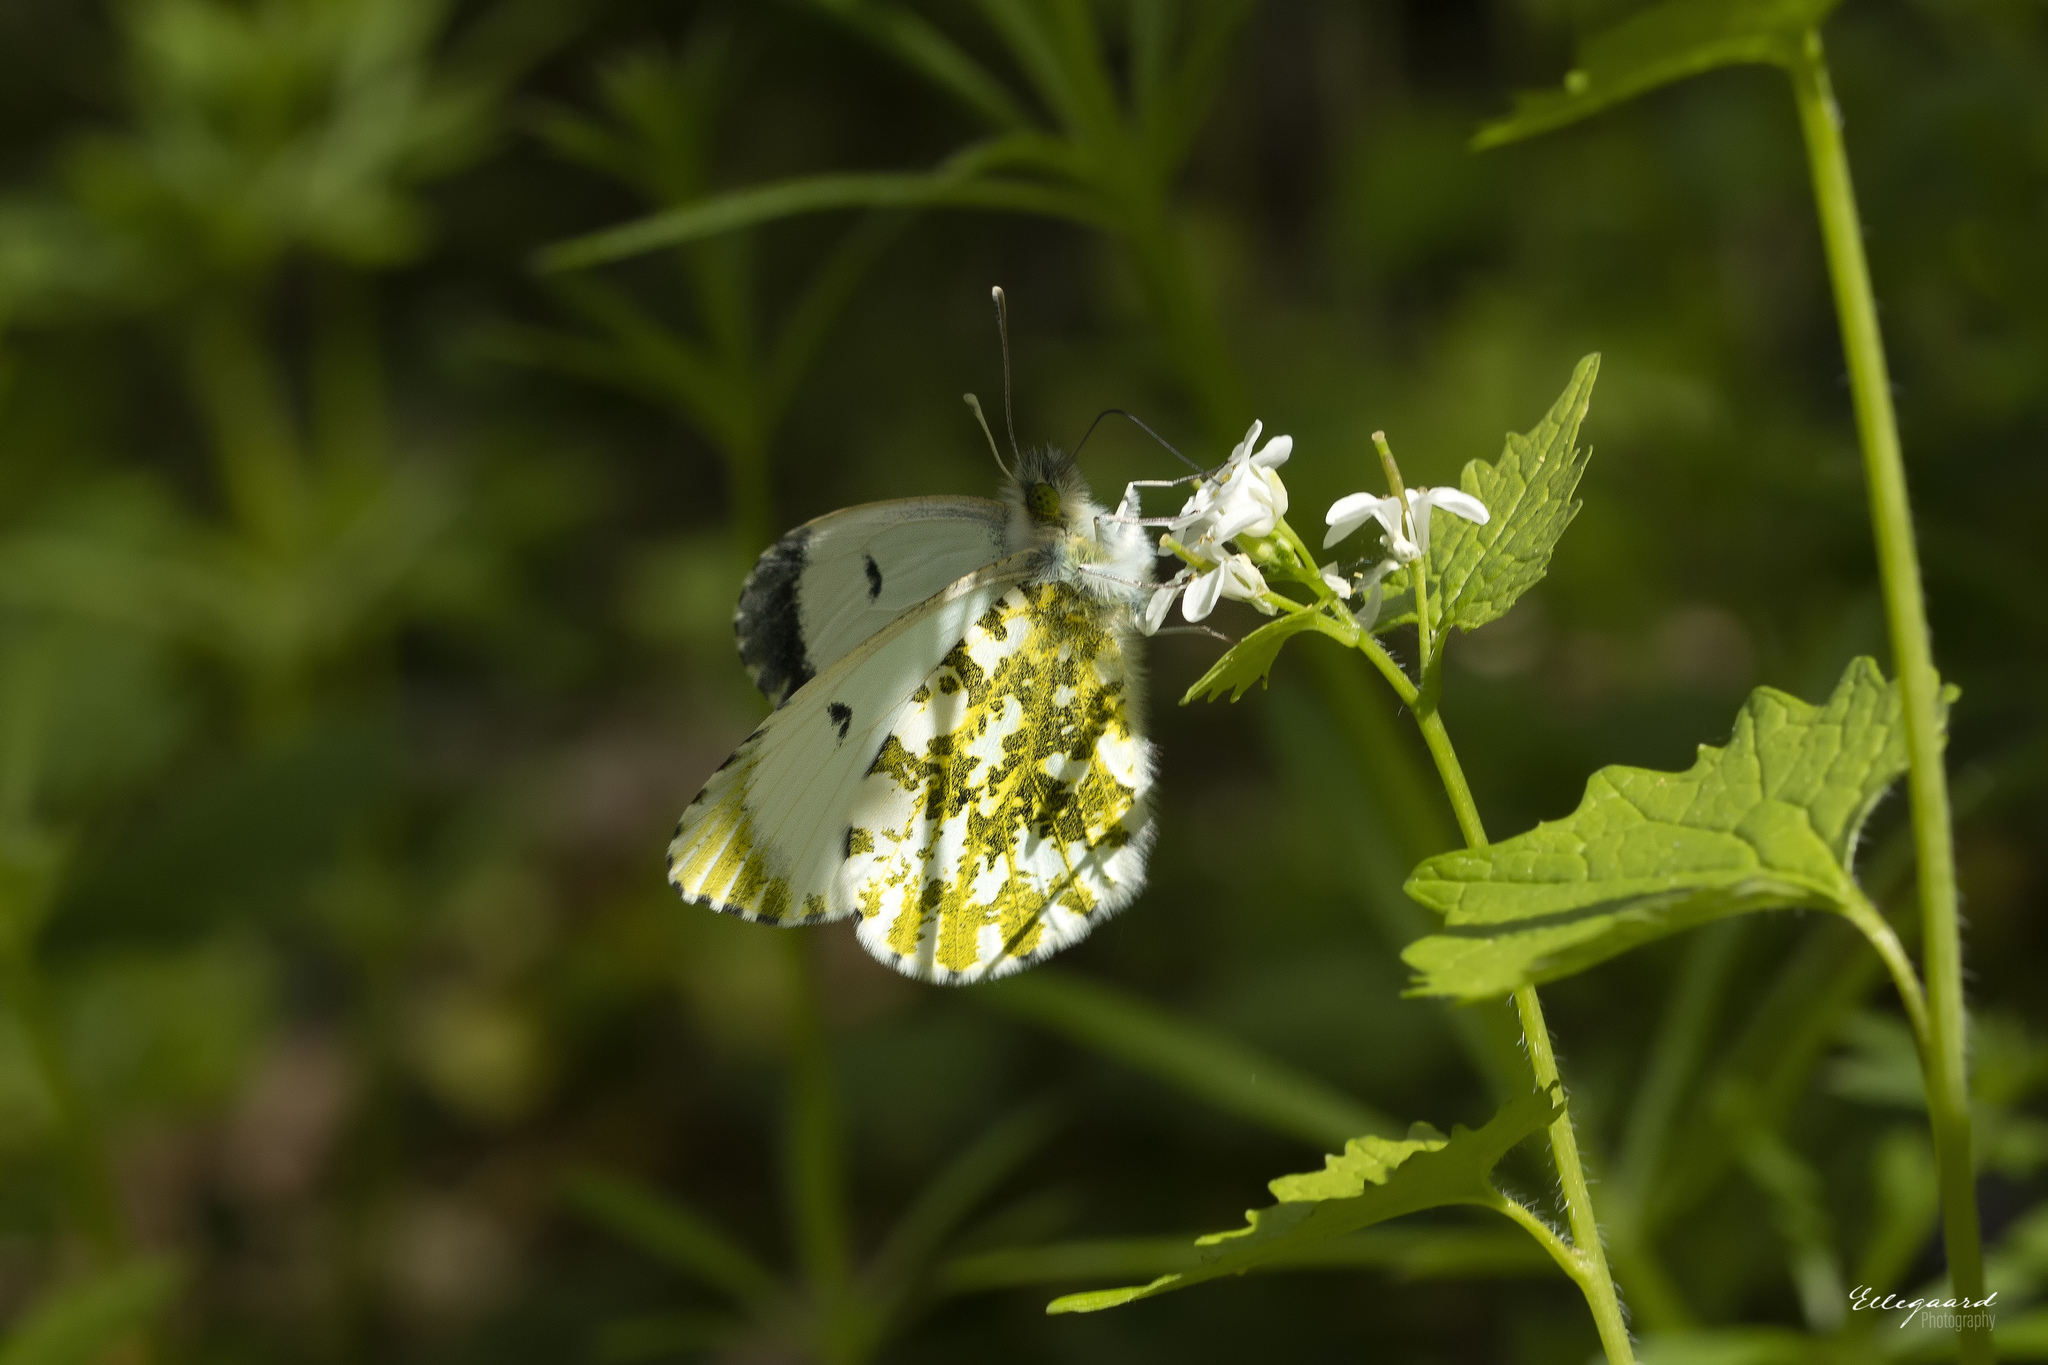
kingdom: Animalia
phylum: Arthropoda
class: Insecta
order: Lepidoptera
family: Pieridae
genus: Anthocharis
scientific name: Anthocharis cardamines
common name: Orange-tip
